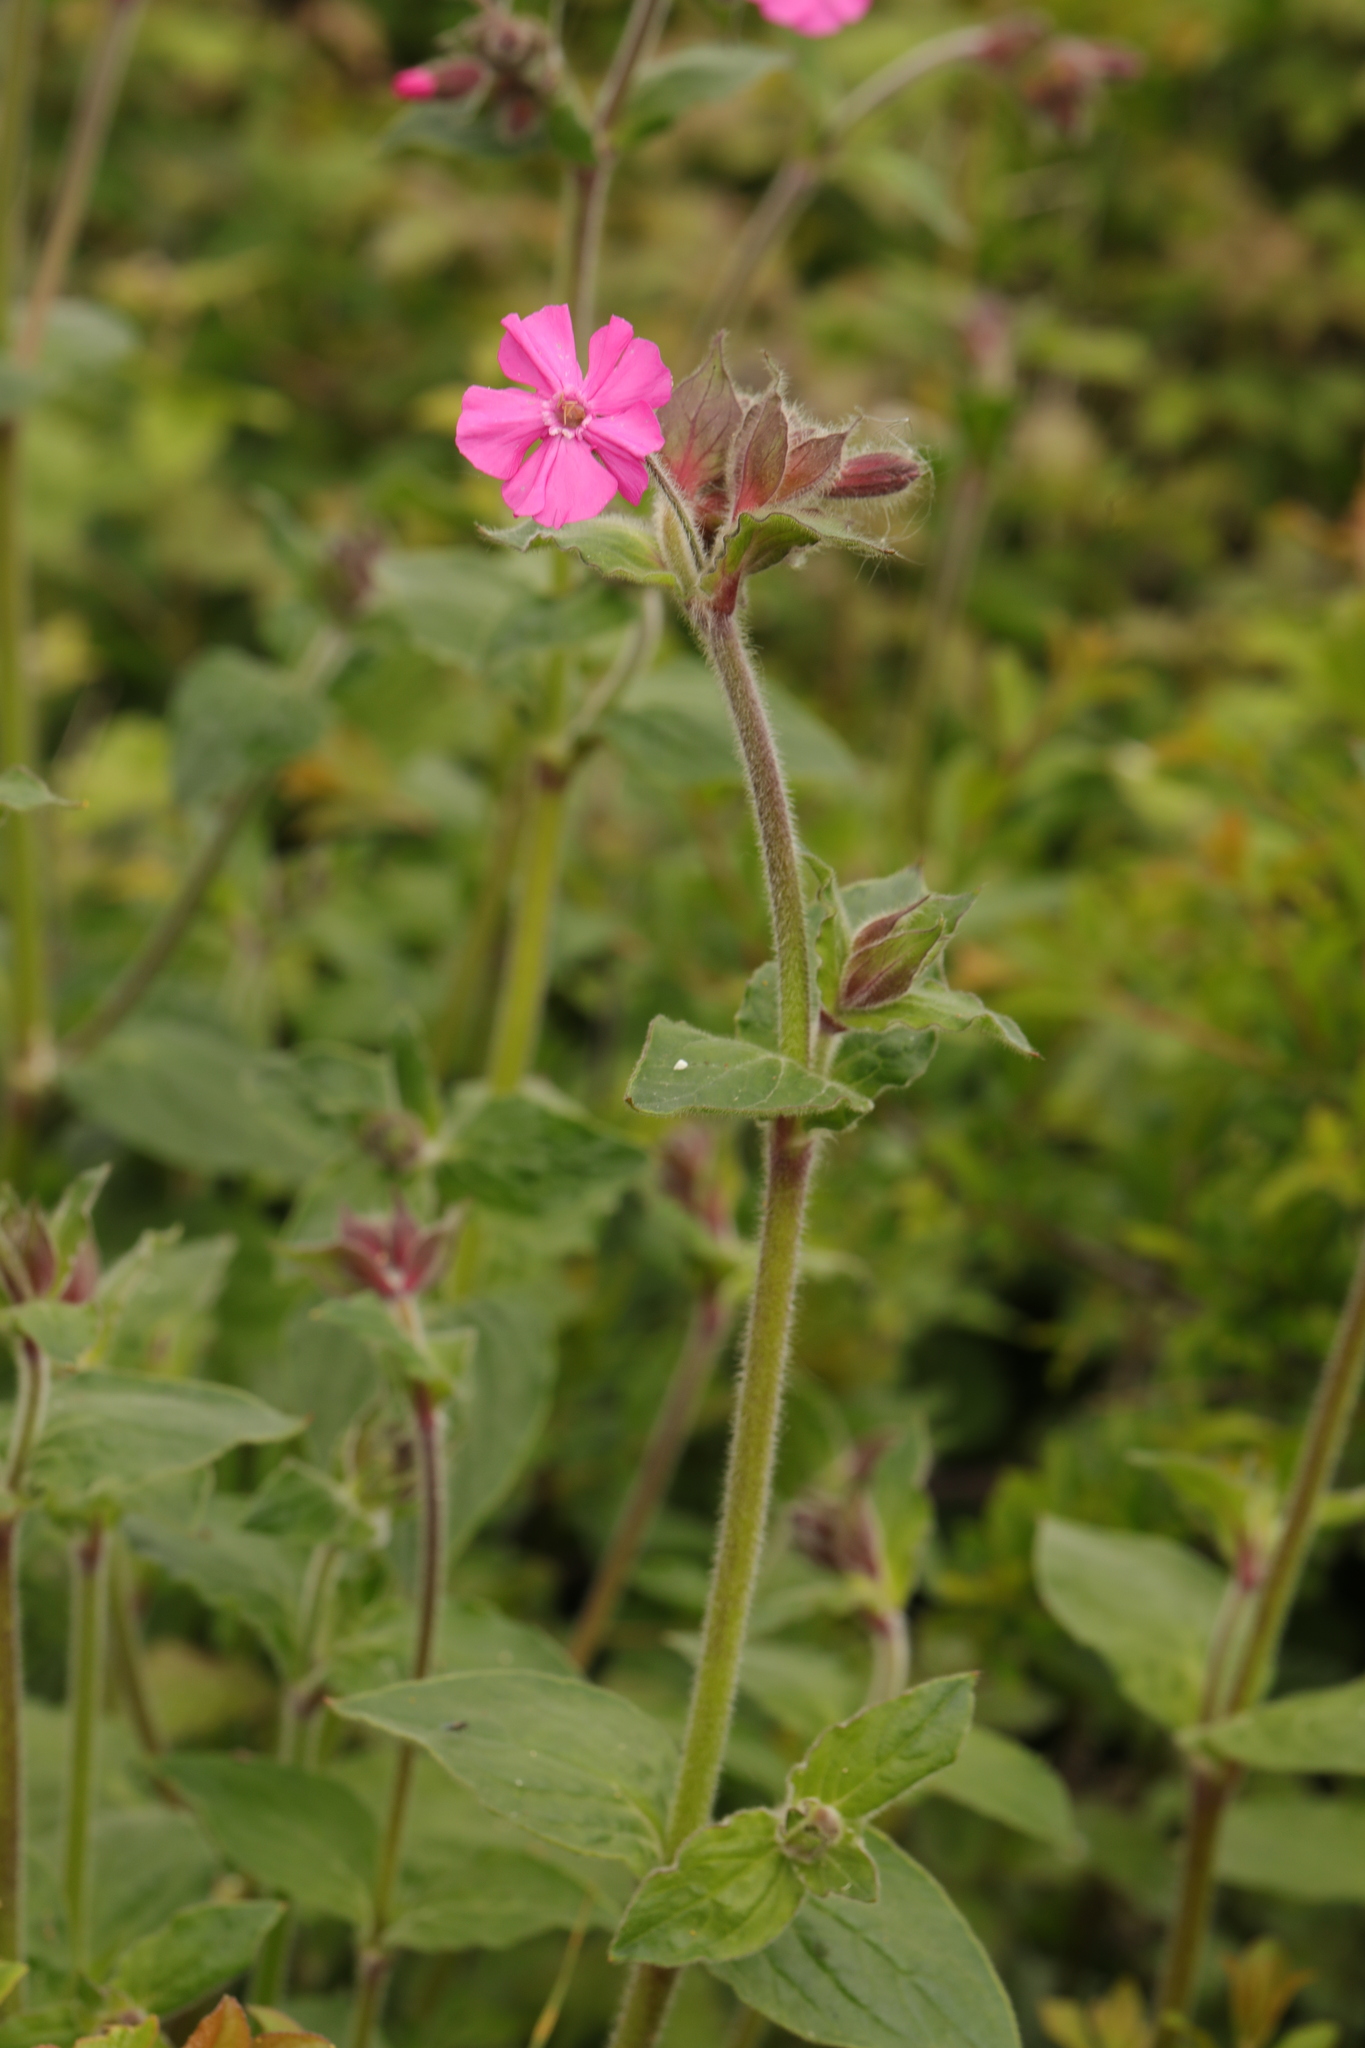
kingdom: Plantae
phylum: Tracheophyta
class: Magnoliopsida
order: Caryophyllales
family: Caryophyllaceae
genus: Silene
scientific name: Silene dioica
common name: Red campion
